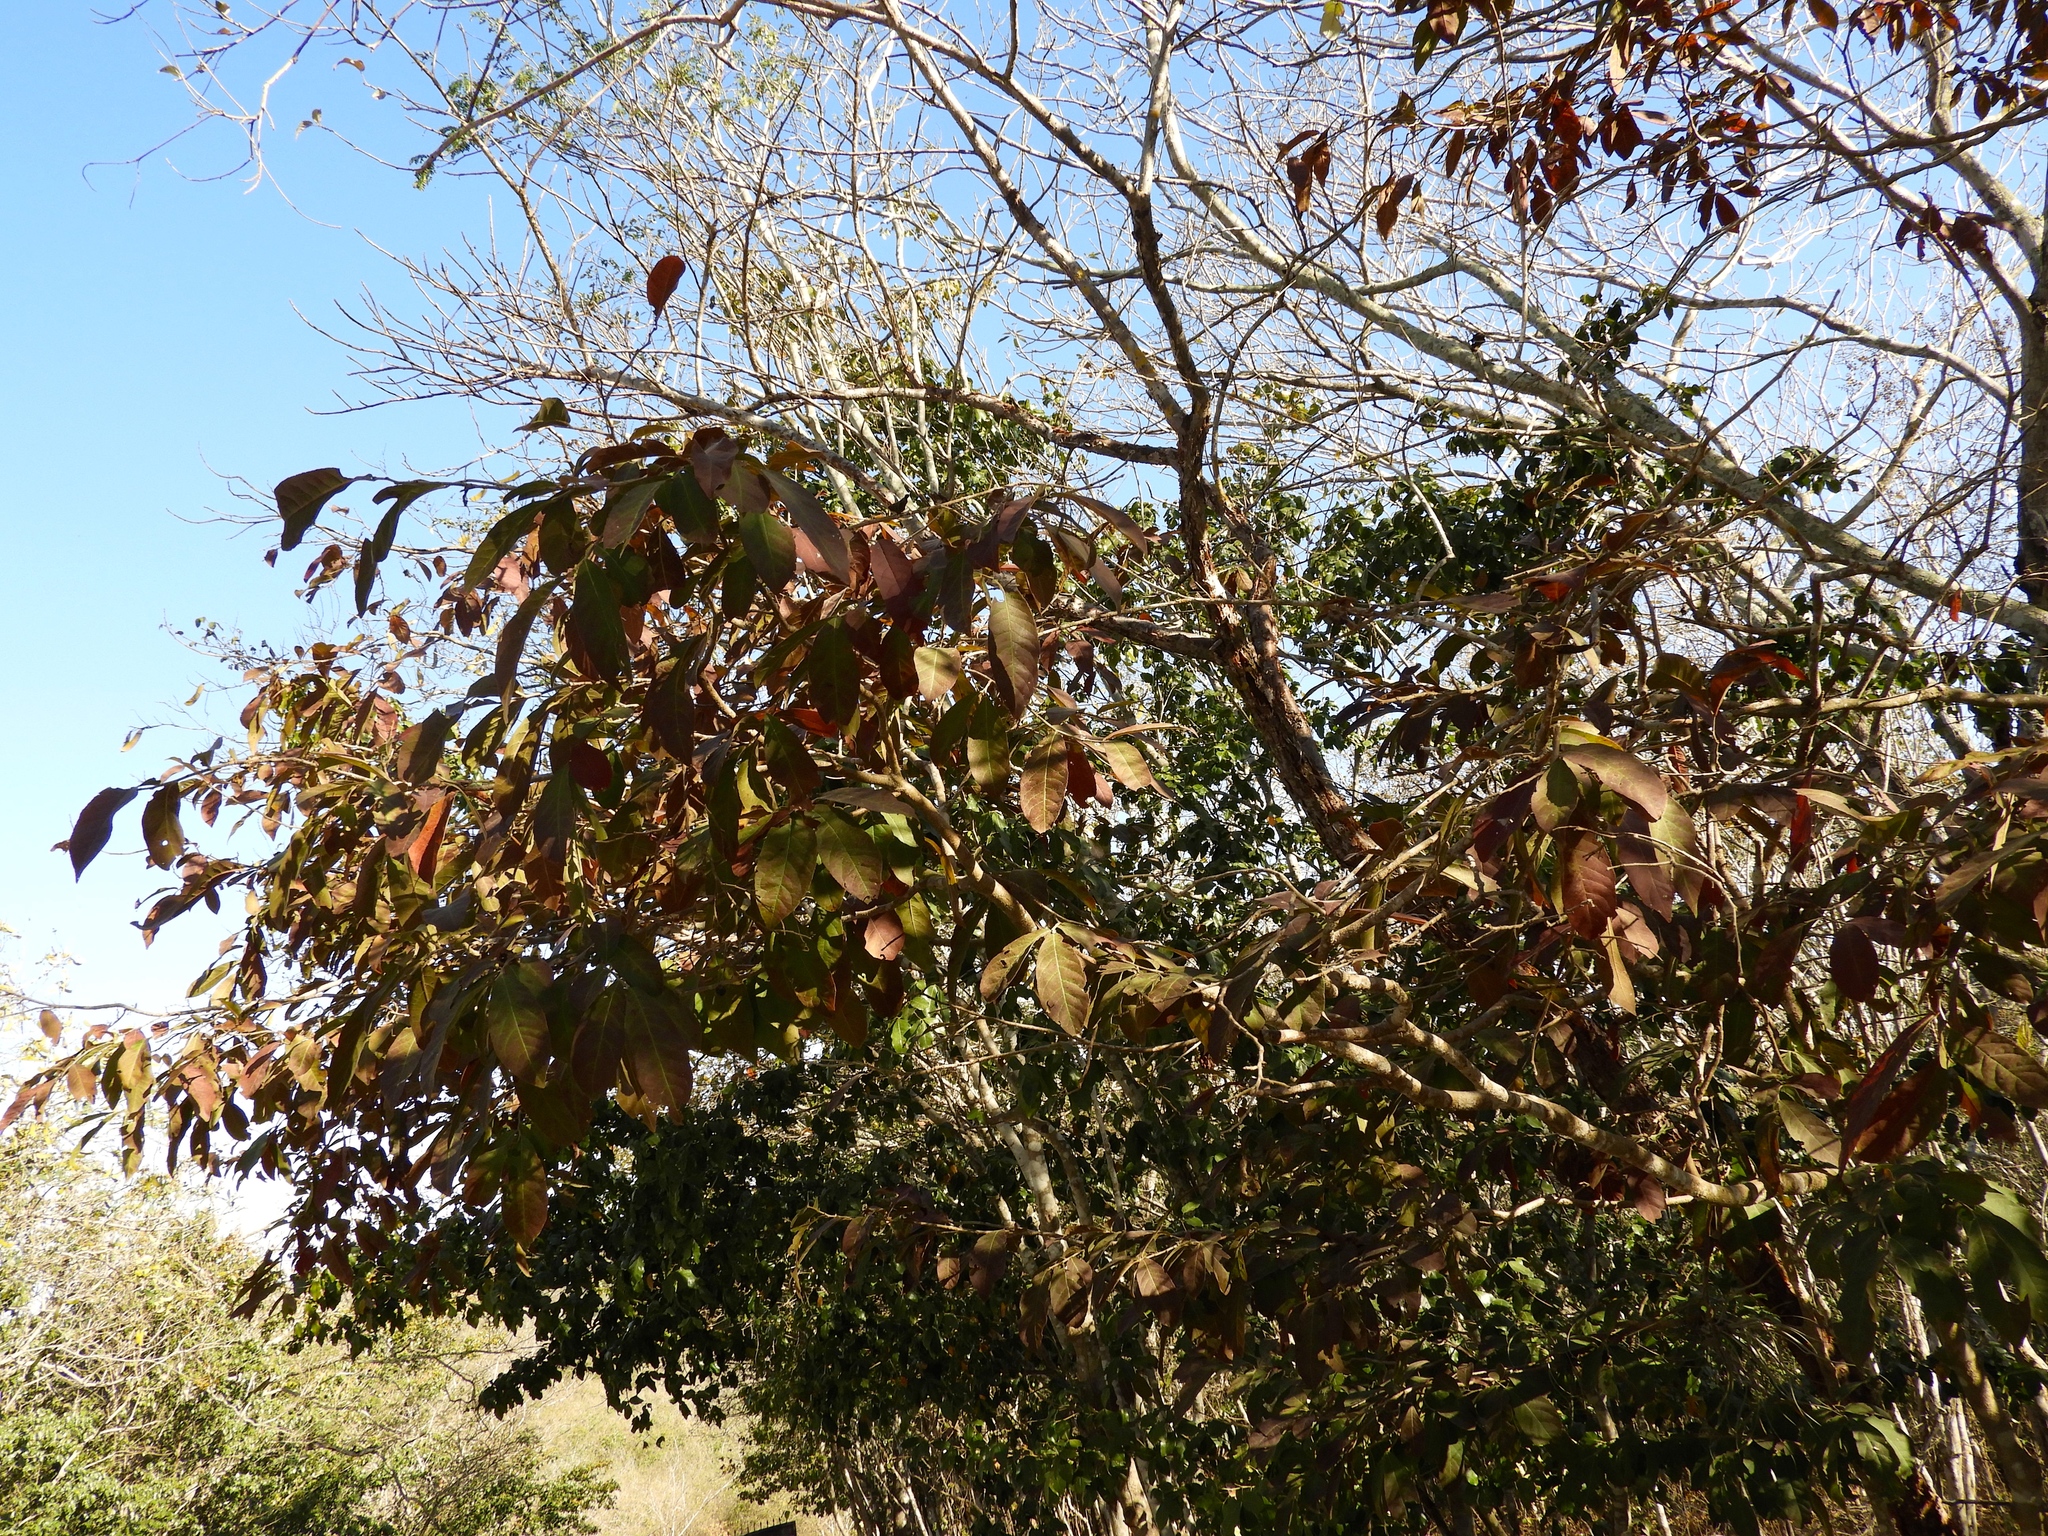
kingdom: Plantae
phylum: Tracheophyta
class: Magnoliopsida
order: Malpighiales
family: Salicaceae
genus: Casearia
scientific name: Casearia corymbosa
